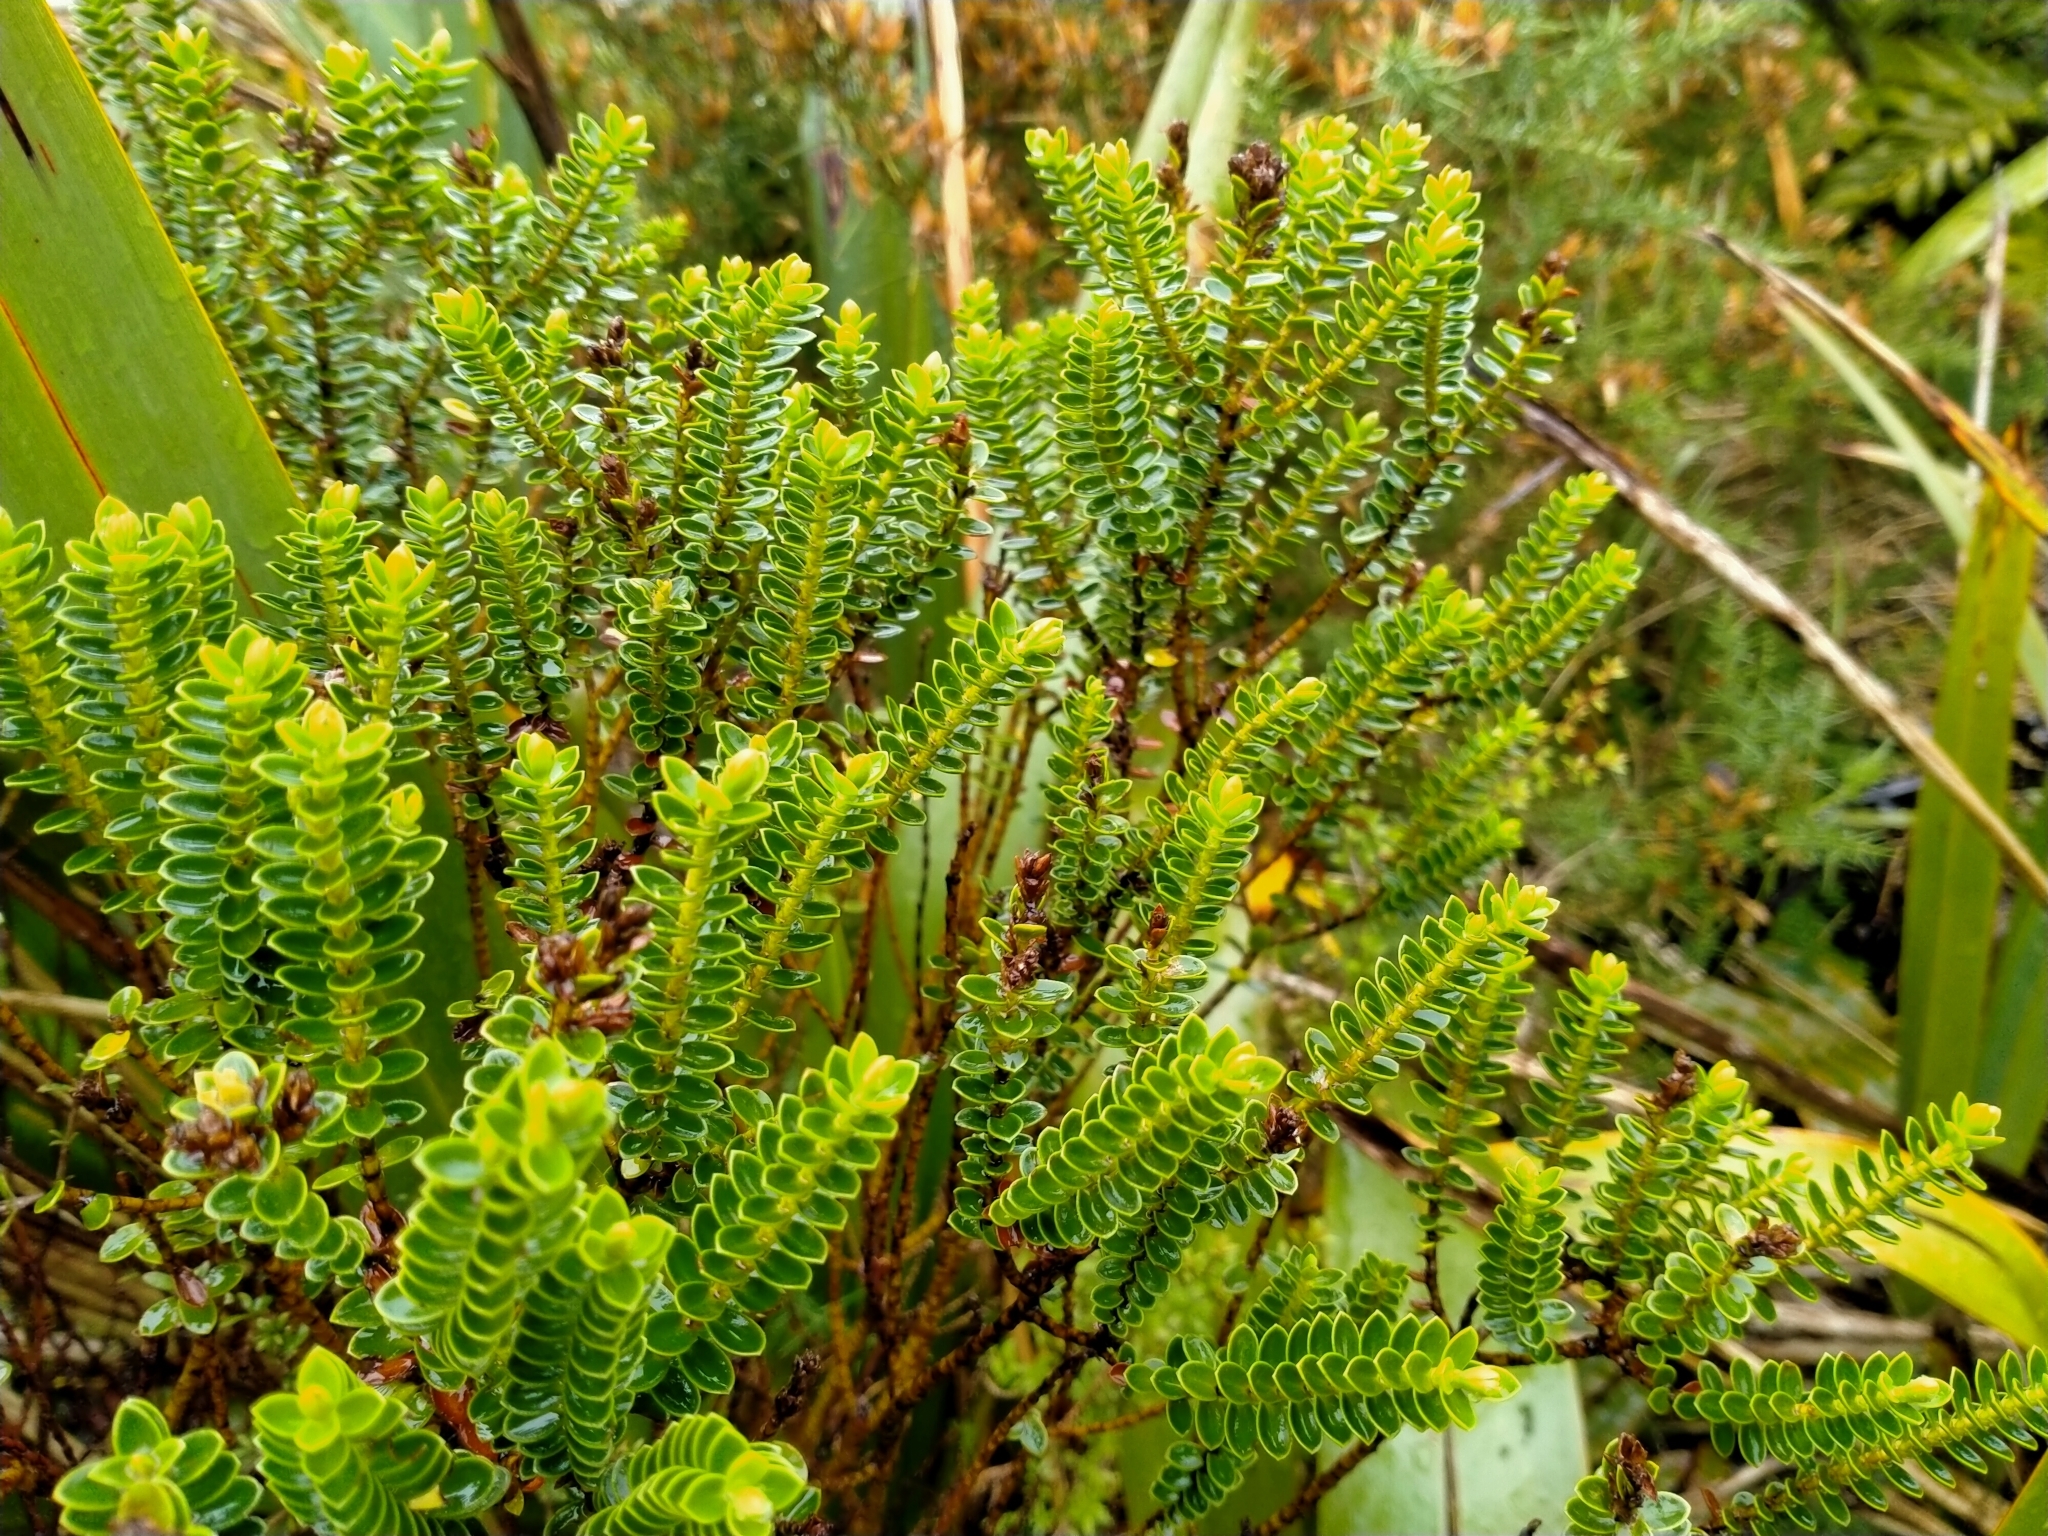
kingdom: Plantae
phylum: Tracheophyta
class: Magnoliopsida
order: Lamiales
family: Plantaginaceae
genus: Veronica
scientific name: Veronica odora
